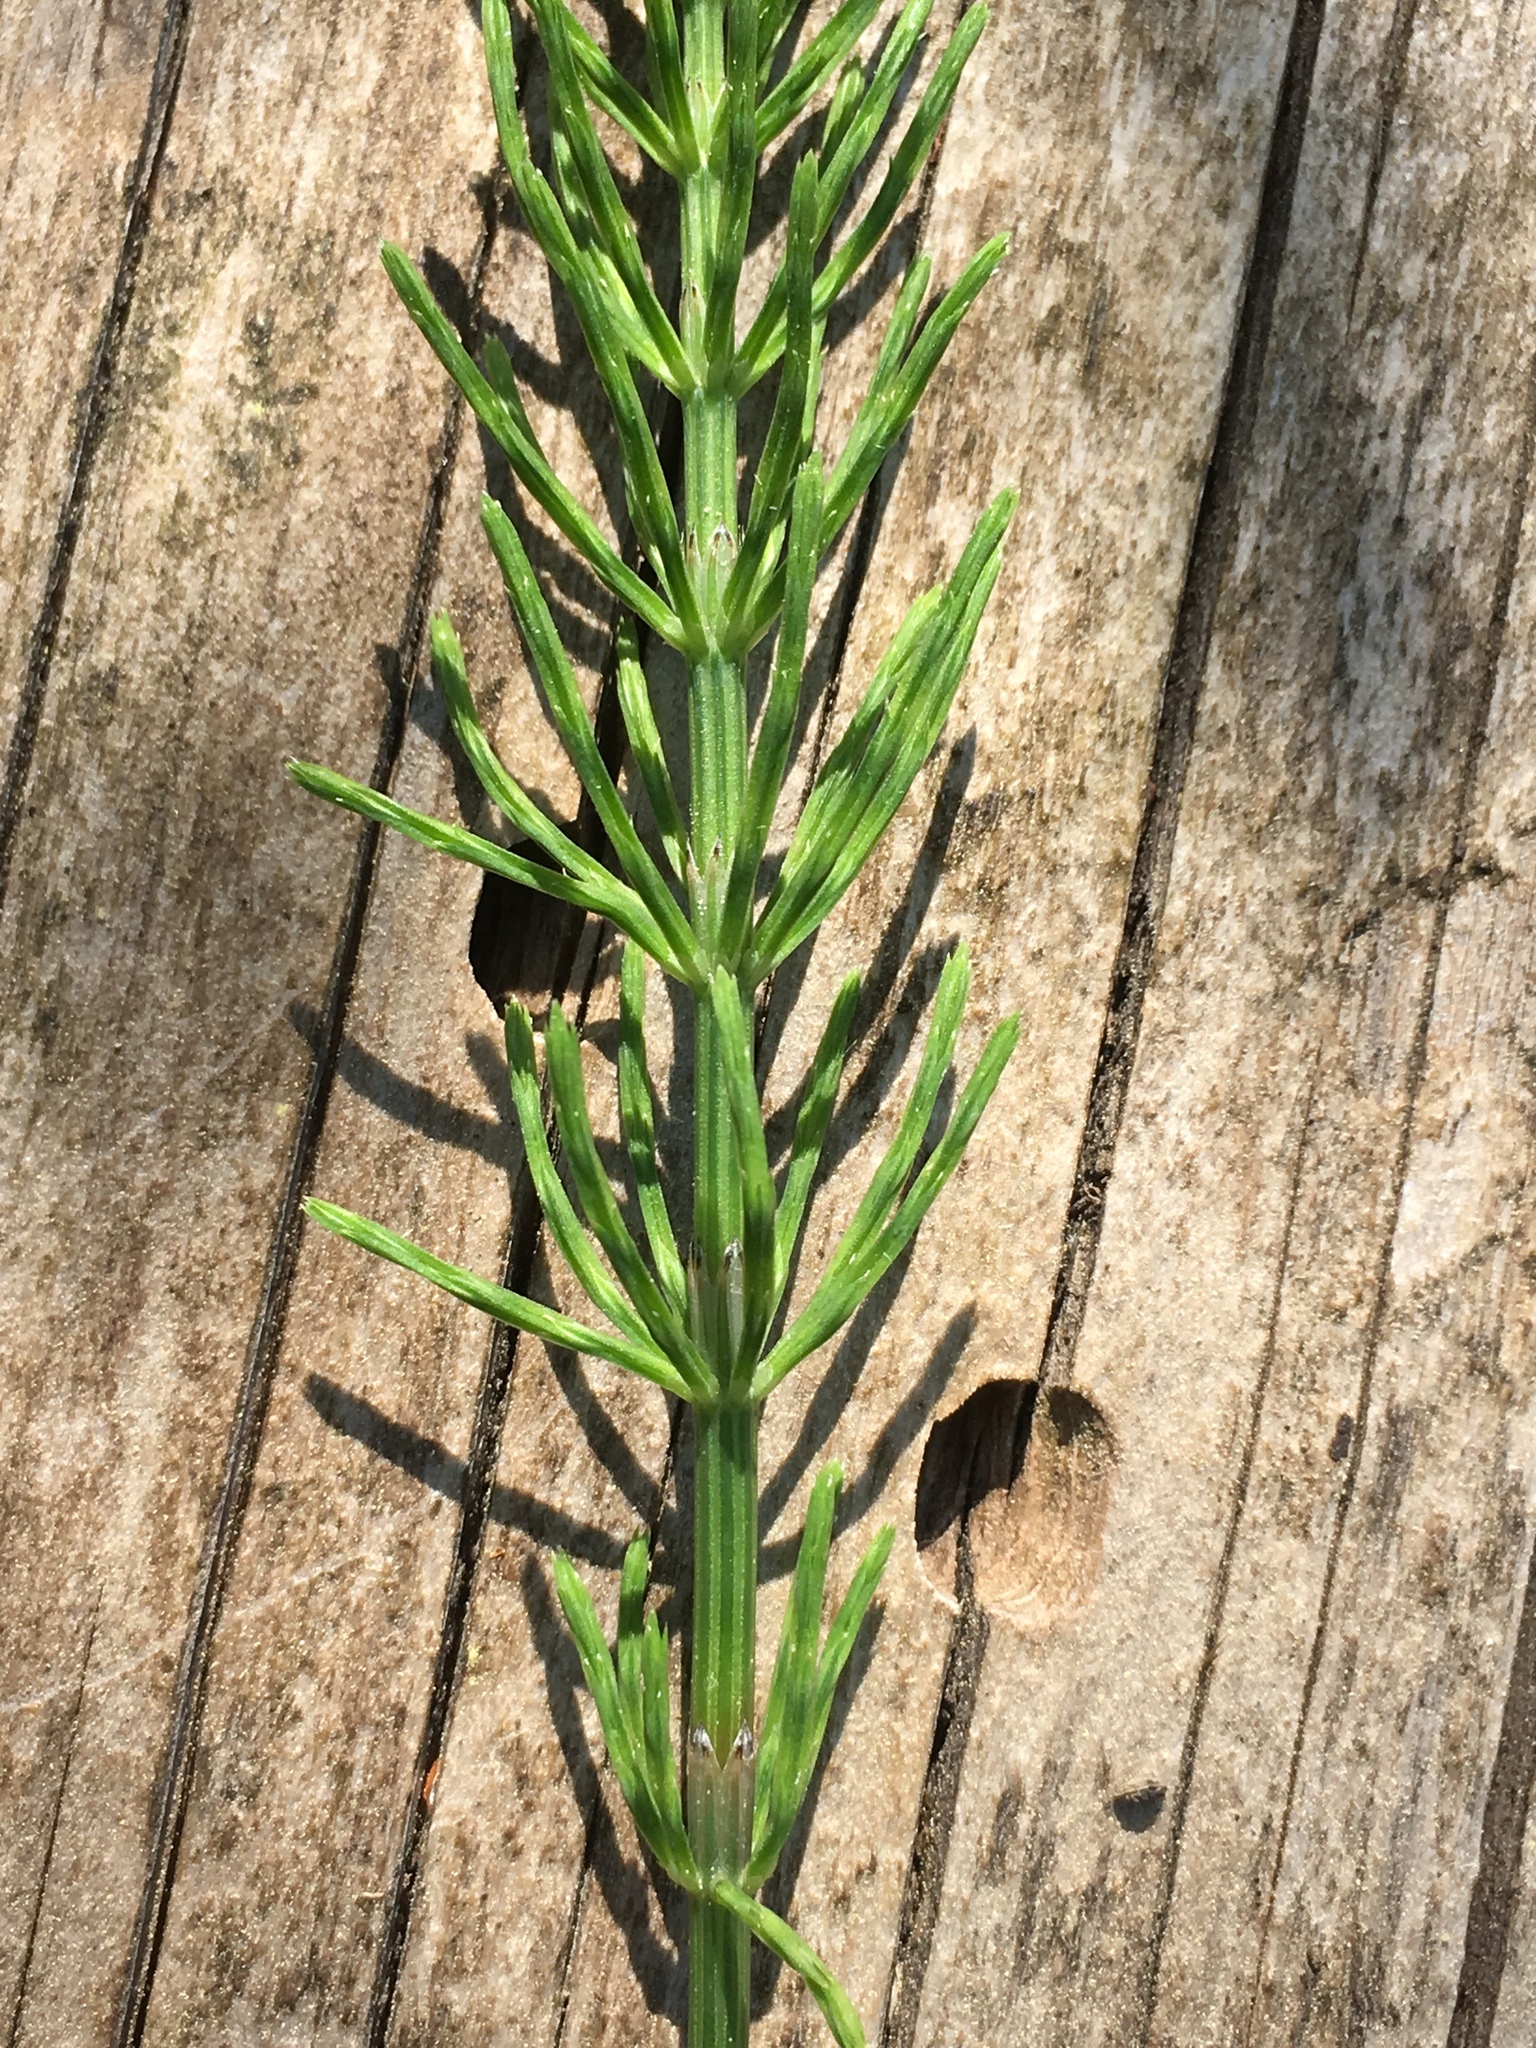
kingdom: Plantae
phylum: Tracheophyta
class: Polypodiopsida
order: Equisetales
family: Equisetaceae
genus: Equisetum
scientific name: Equisetum arvense
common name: Field horsetail
